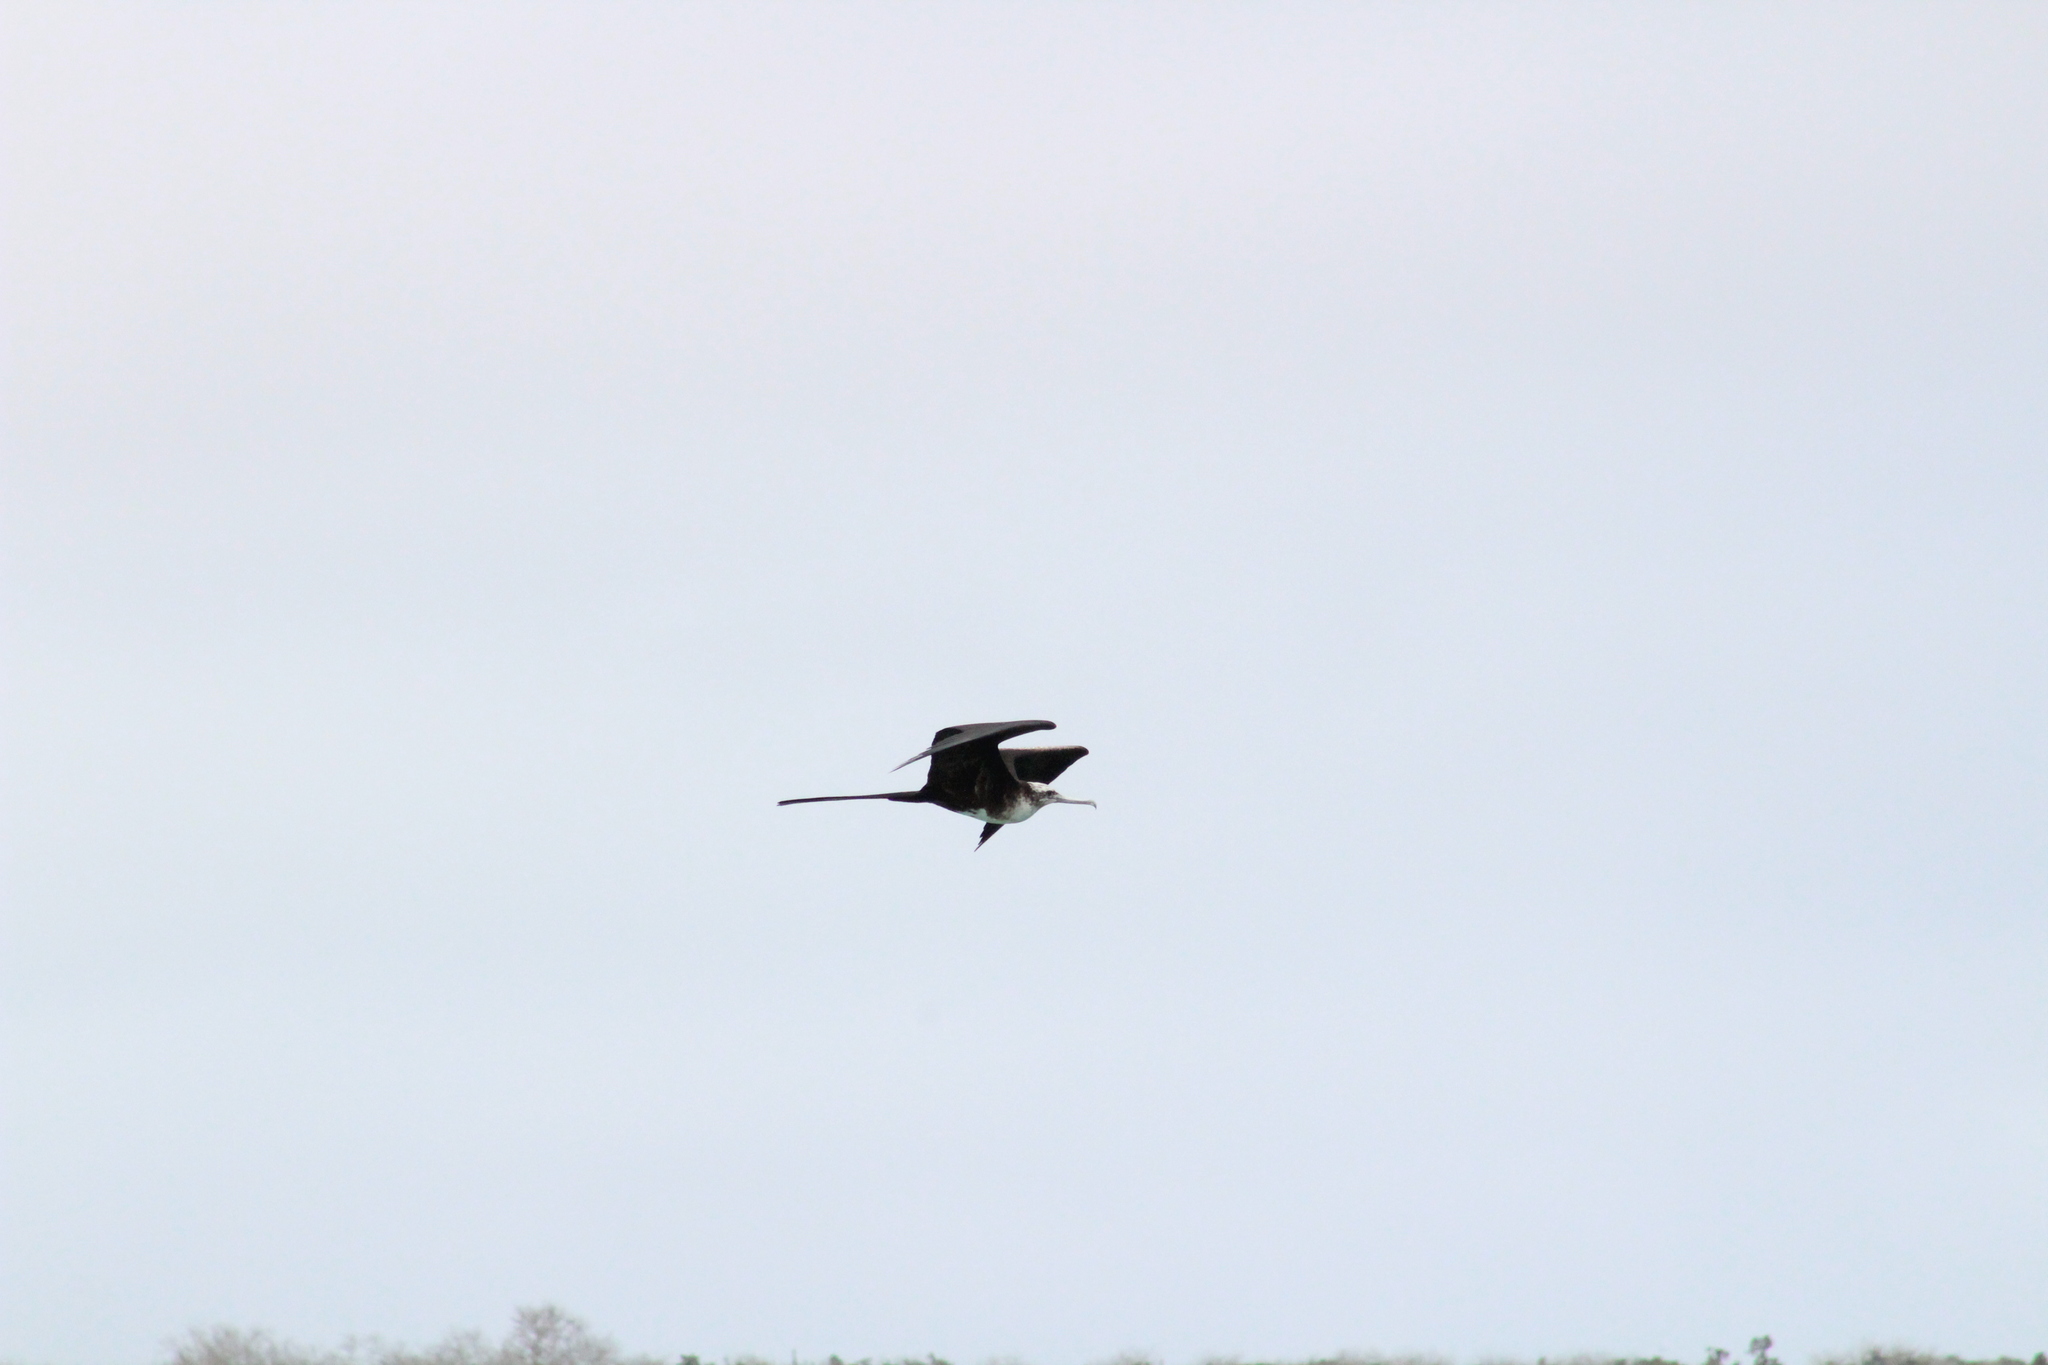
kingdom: Animalia
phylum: Chordata
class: Aves
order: Suliformes
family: Fregatidae
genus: Fregata
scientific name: Fregata magnificens
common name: Magnificent frigatebird
